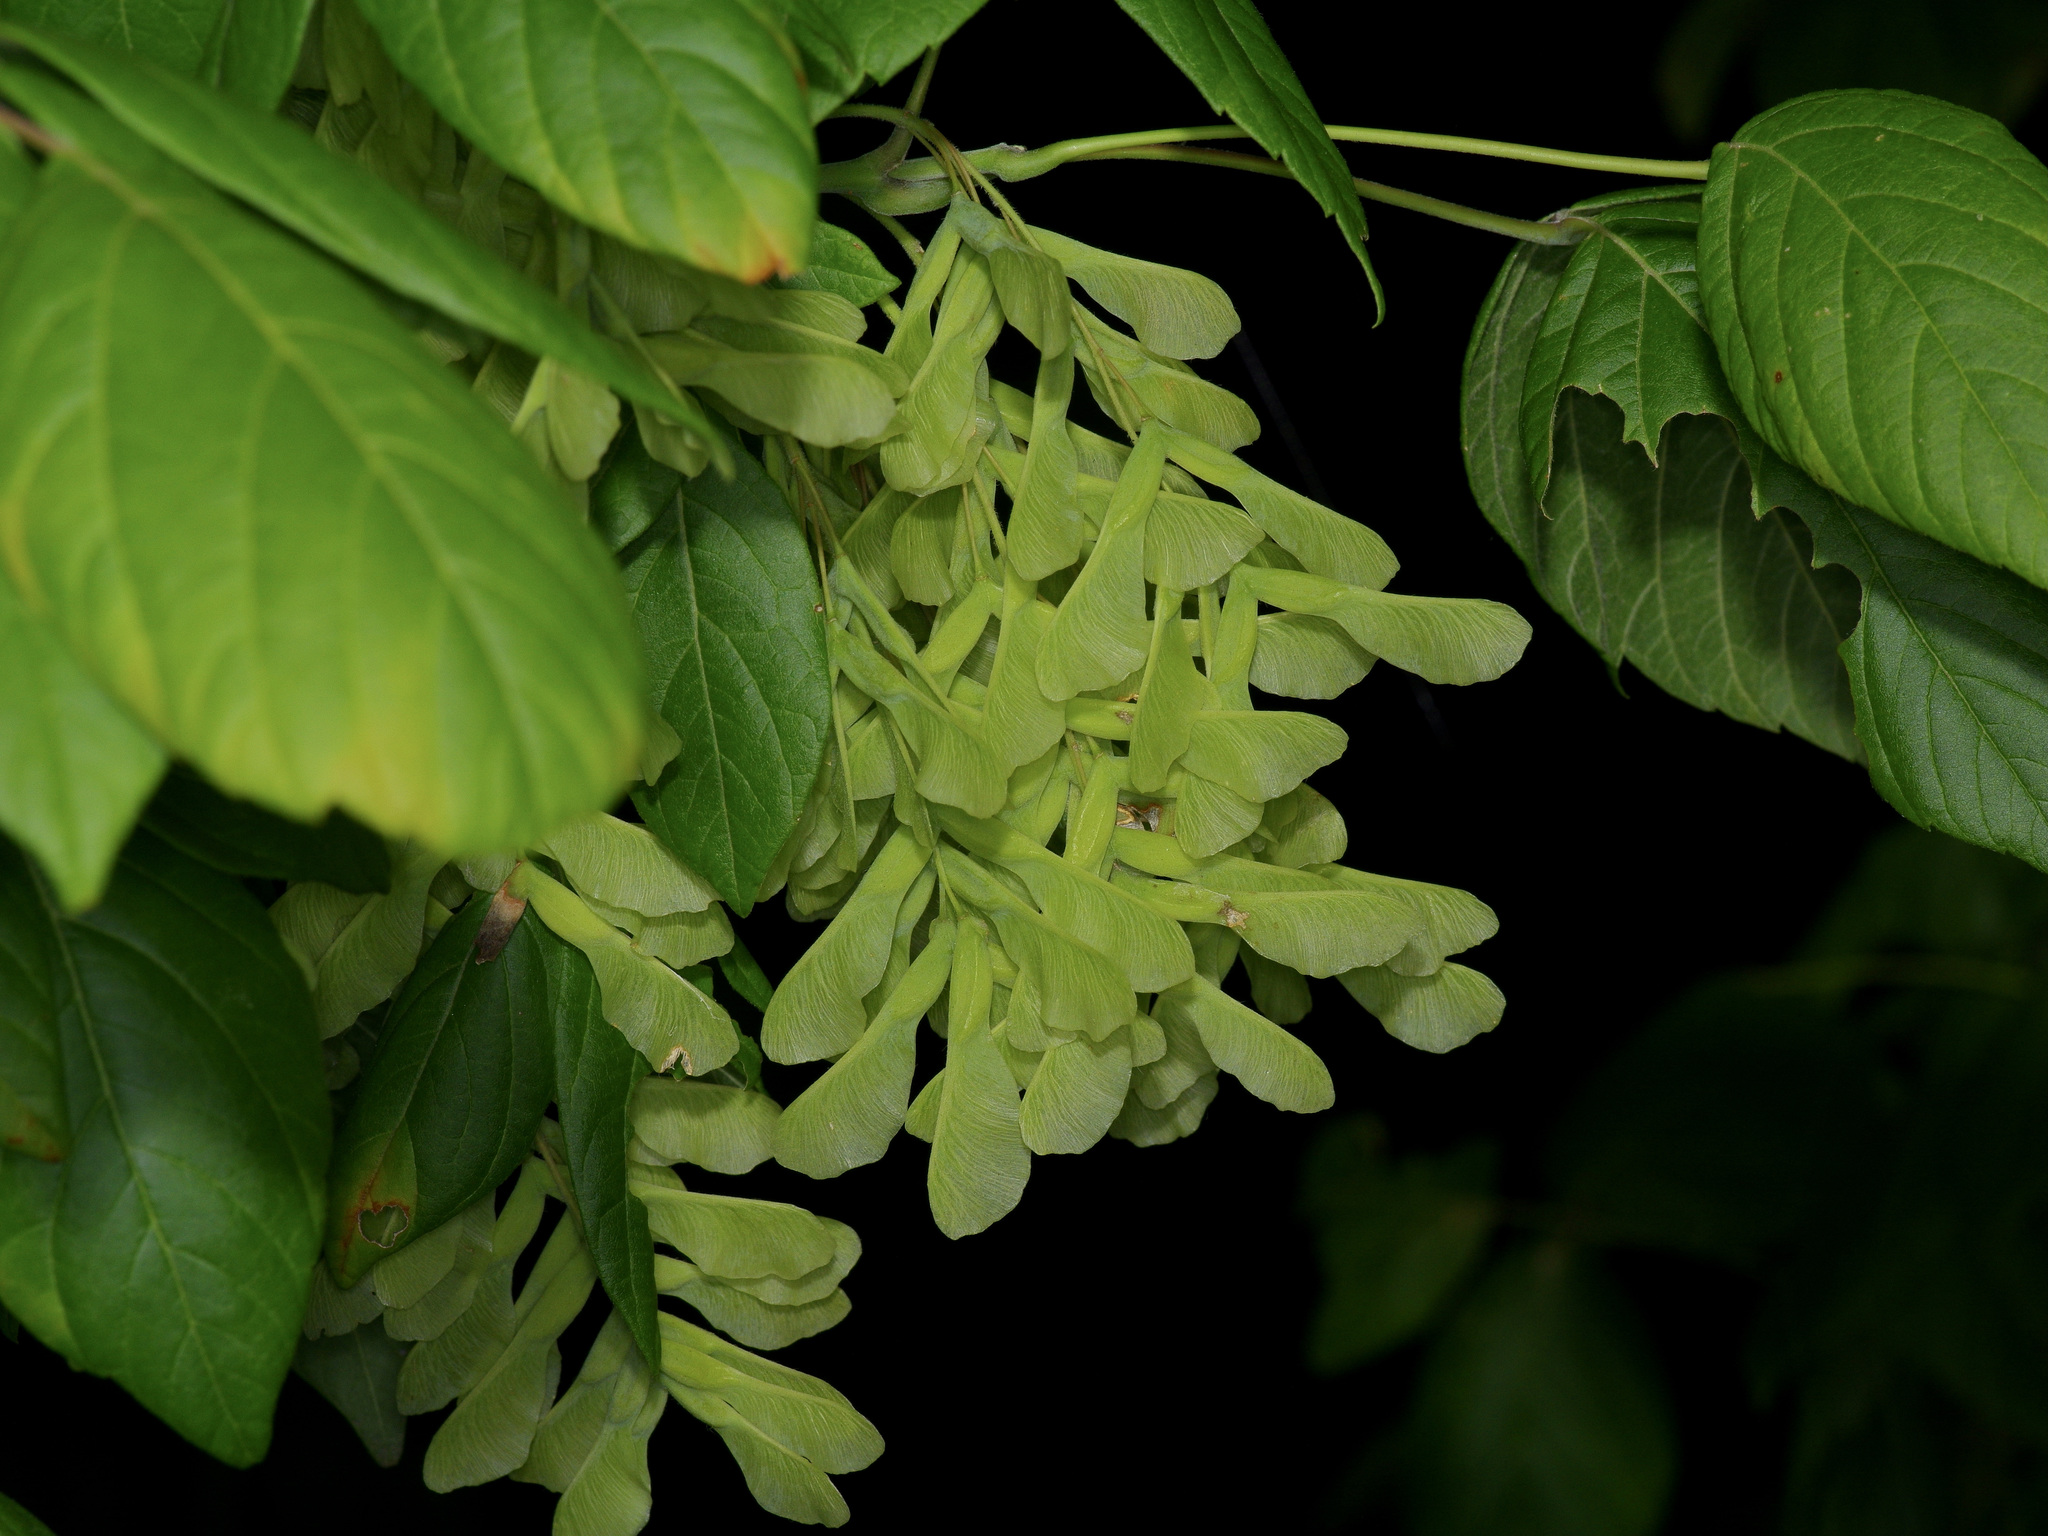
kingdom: Plantae
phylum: Tracheophyta
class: Magnoliopsida
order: Sapindales
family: Sapindaceae
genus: Acer
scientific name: Acer negundo
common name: Ashleaf maple
